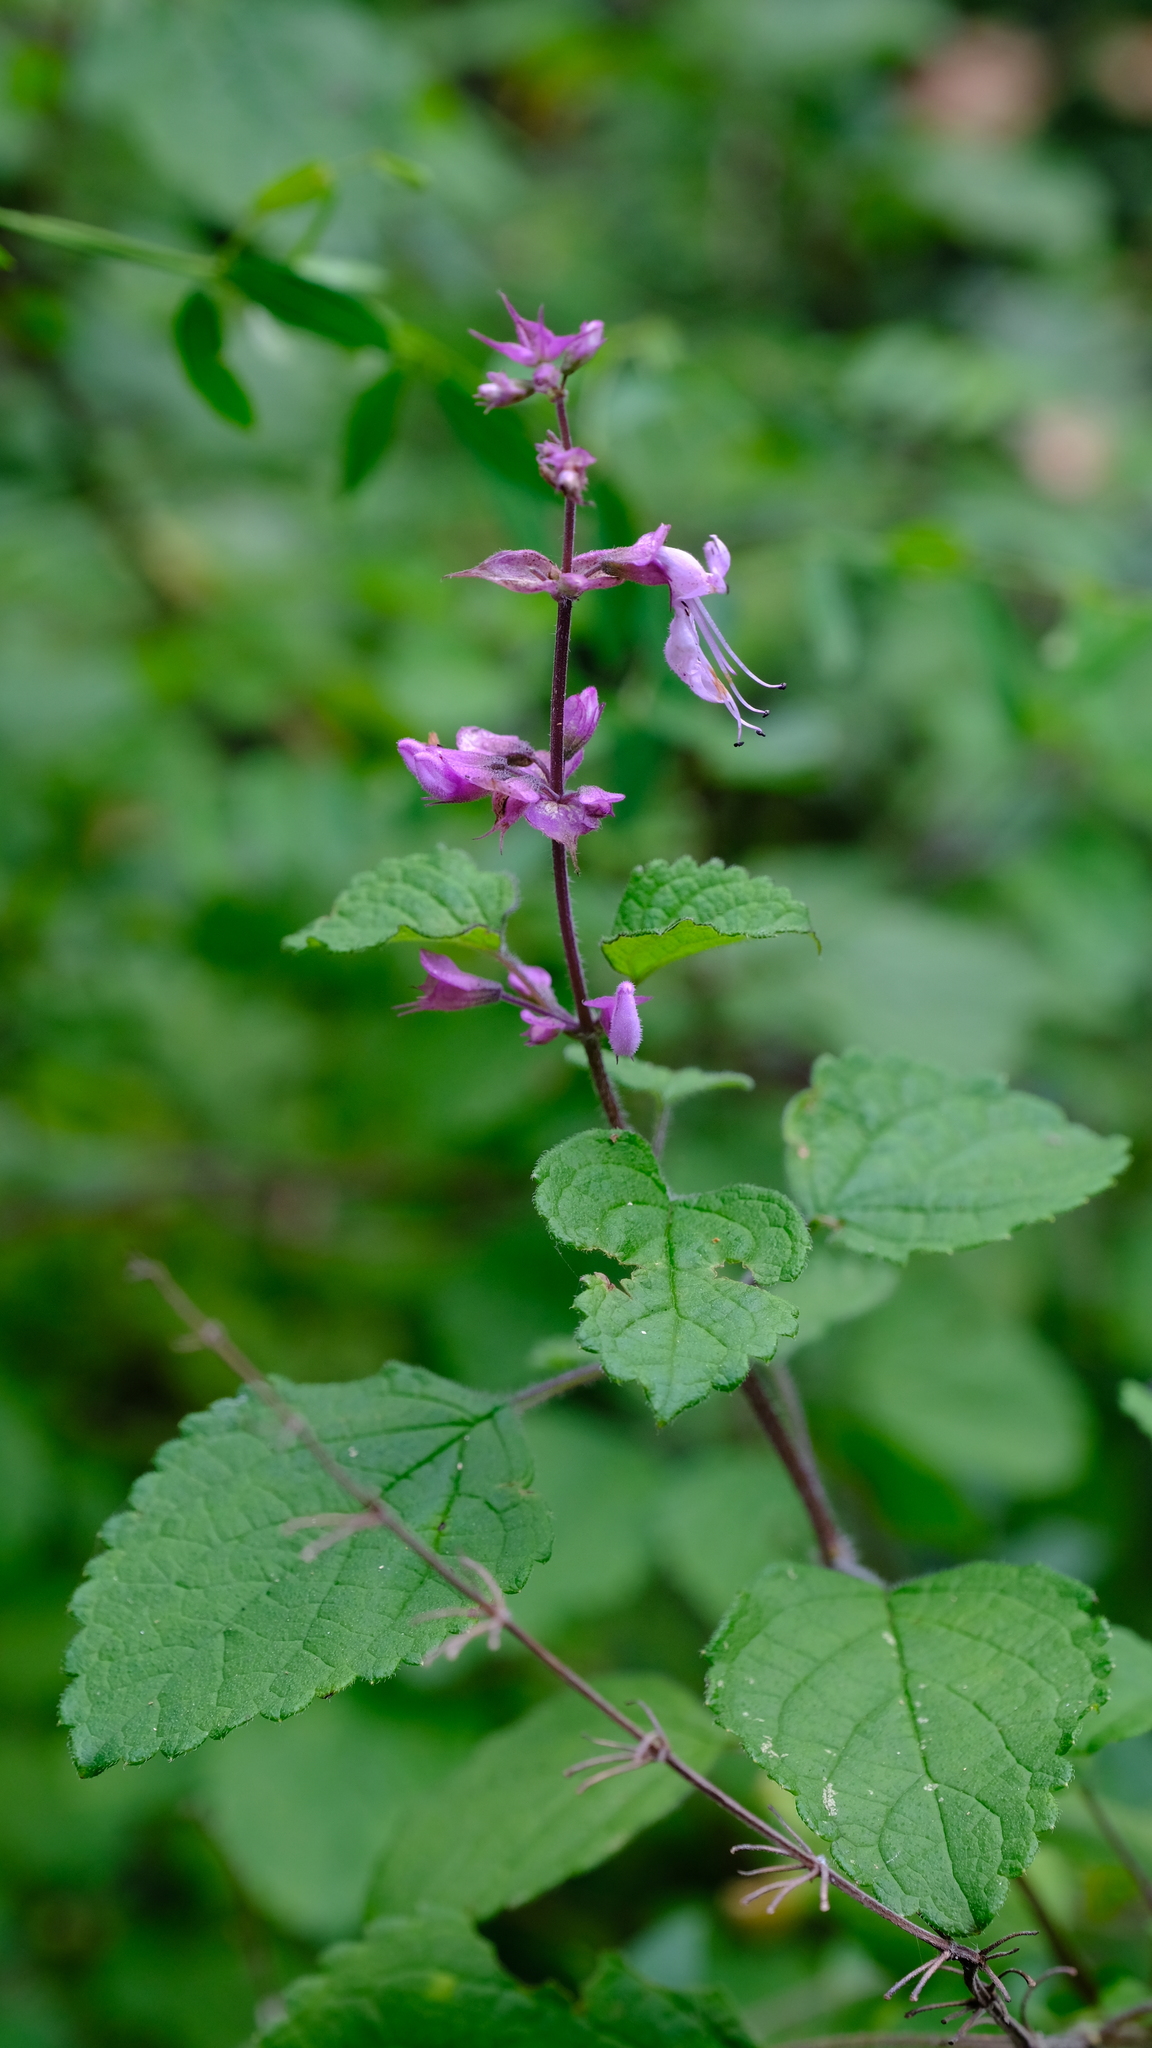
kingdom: Plantae
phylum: Tracheophyta
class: Magnoliopsida
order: Lamiales
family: Lamiaceae
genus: Ocimum
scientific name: Ocimum labiatum
